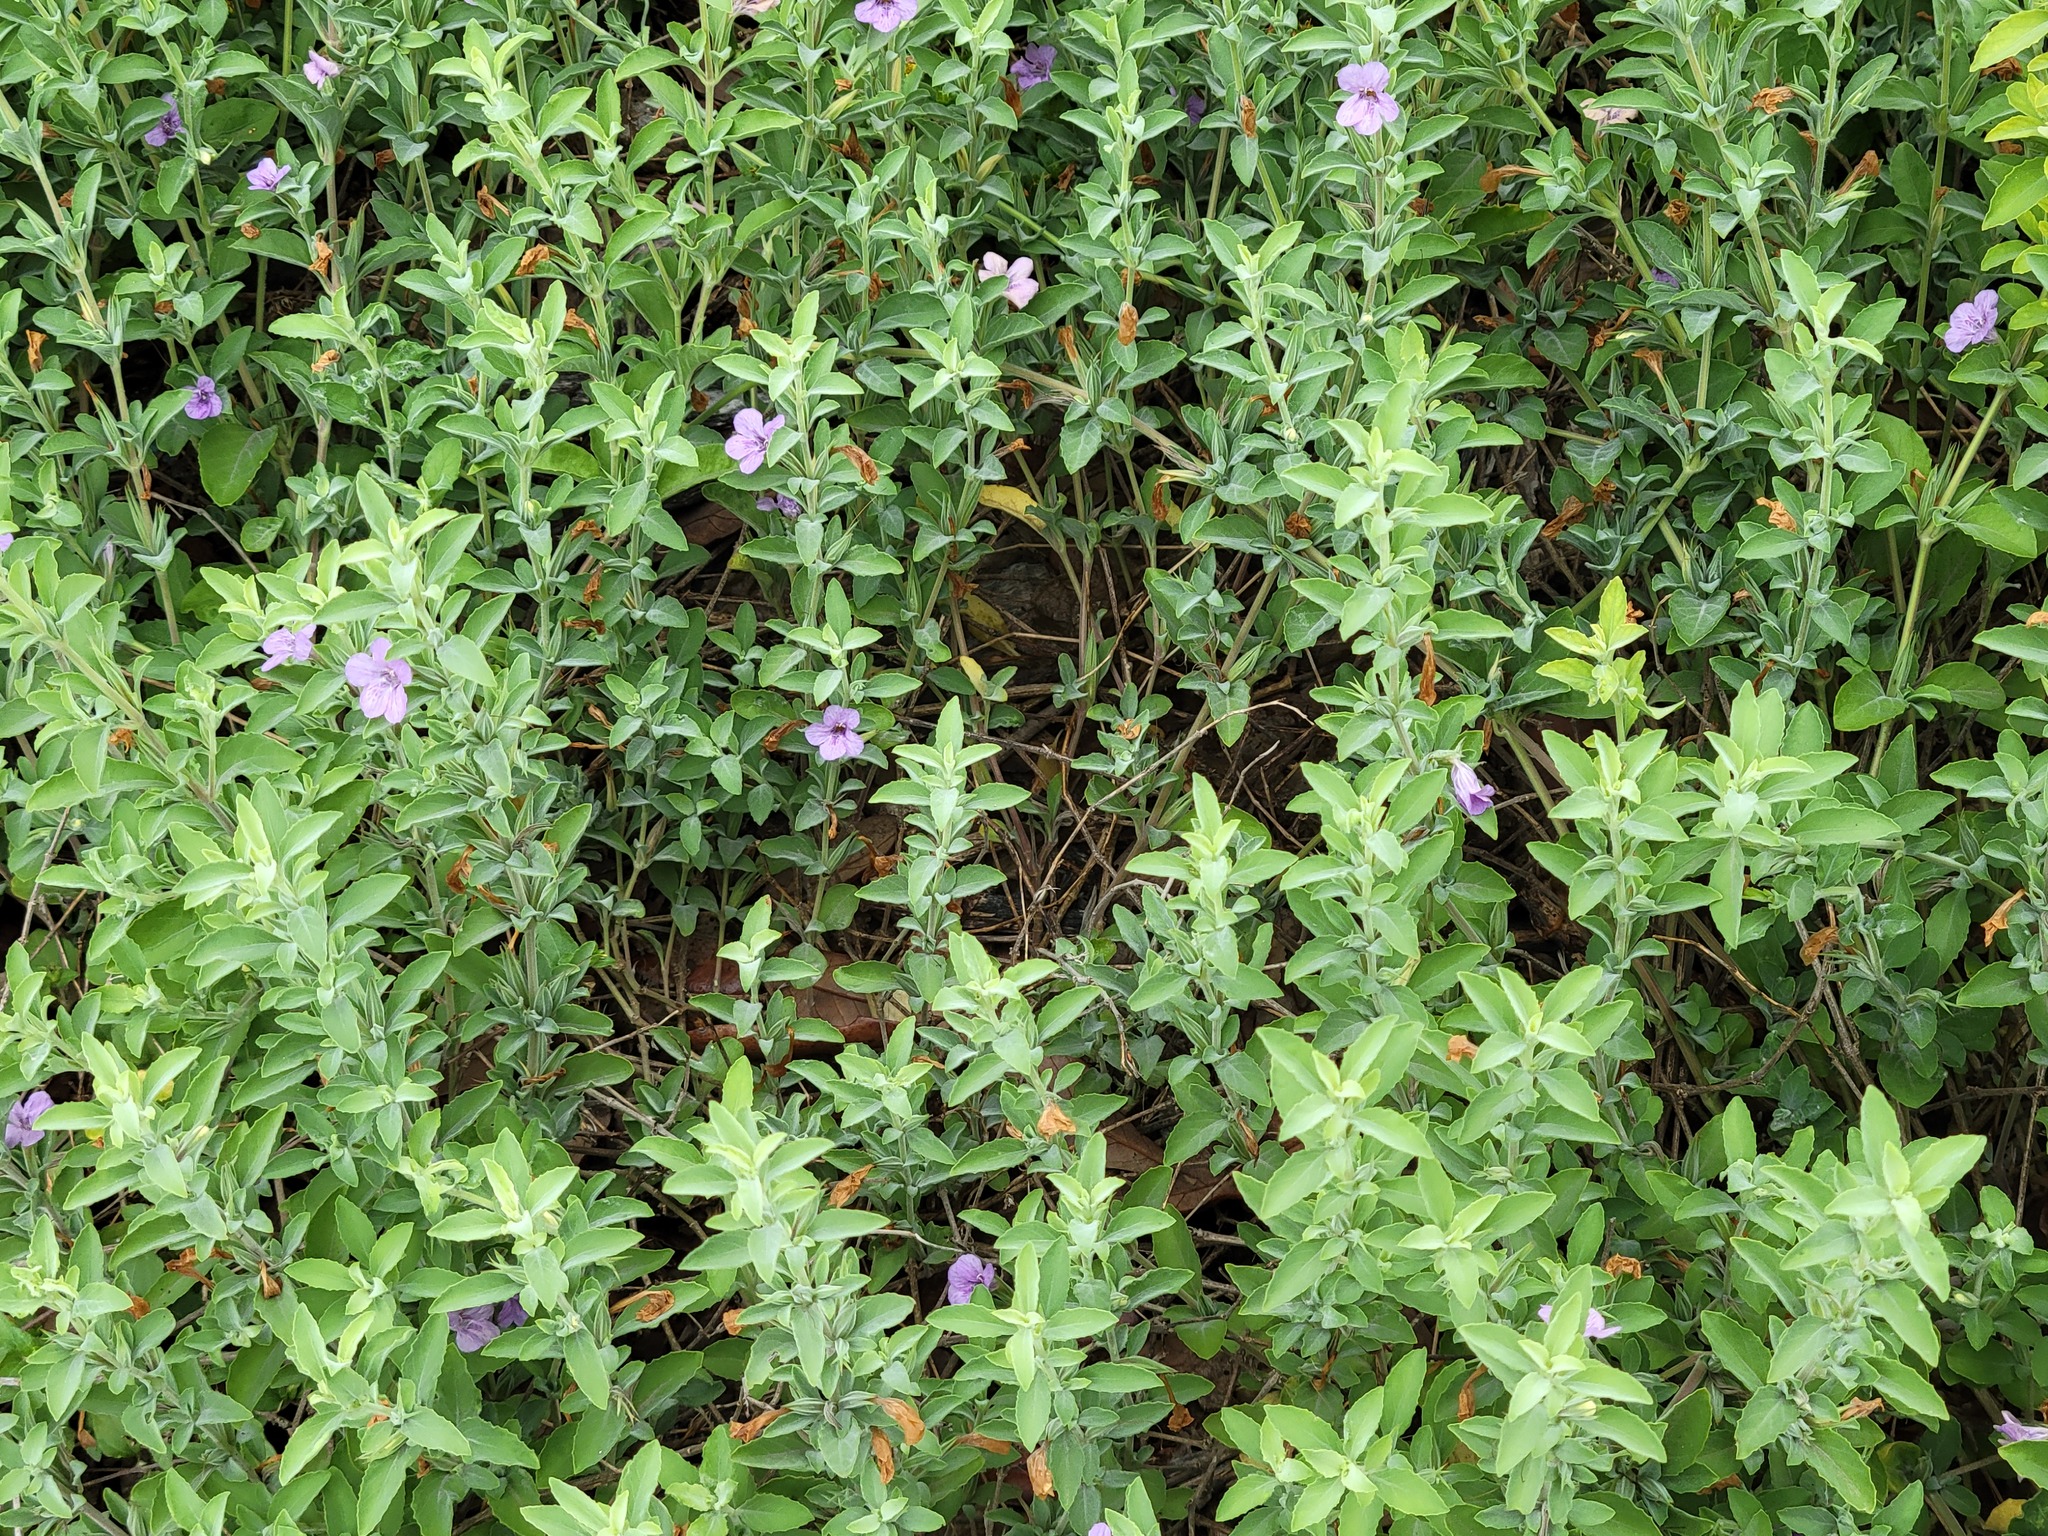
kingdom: Plantae
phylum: Tracheophyta
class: Magnoliopsida
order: Lamiales
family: Acanthaceae
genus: Dyschoriste
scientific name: Dyschoriste crenulata
